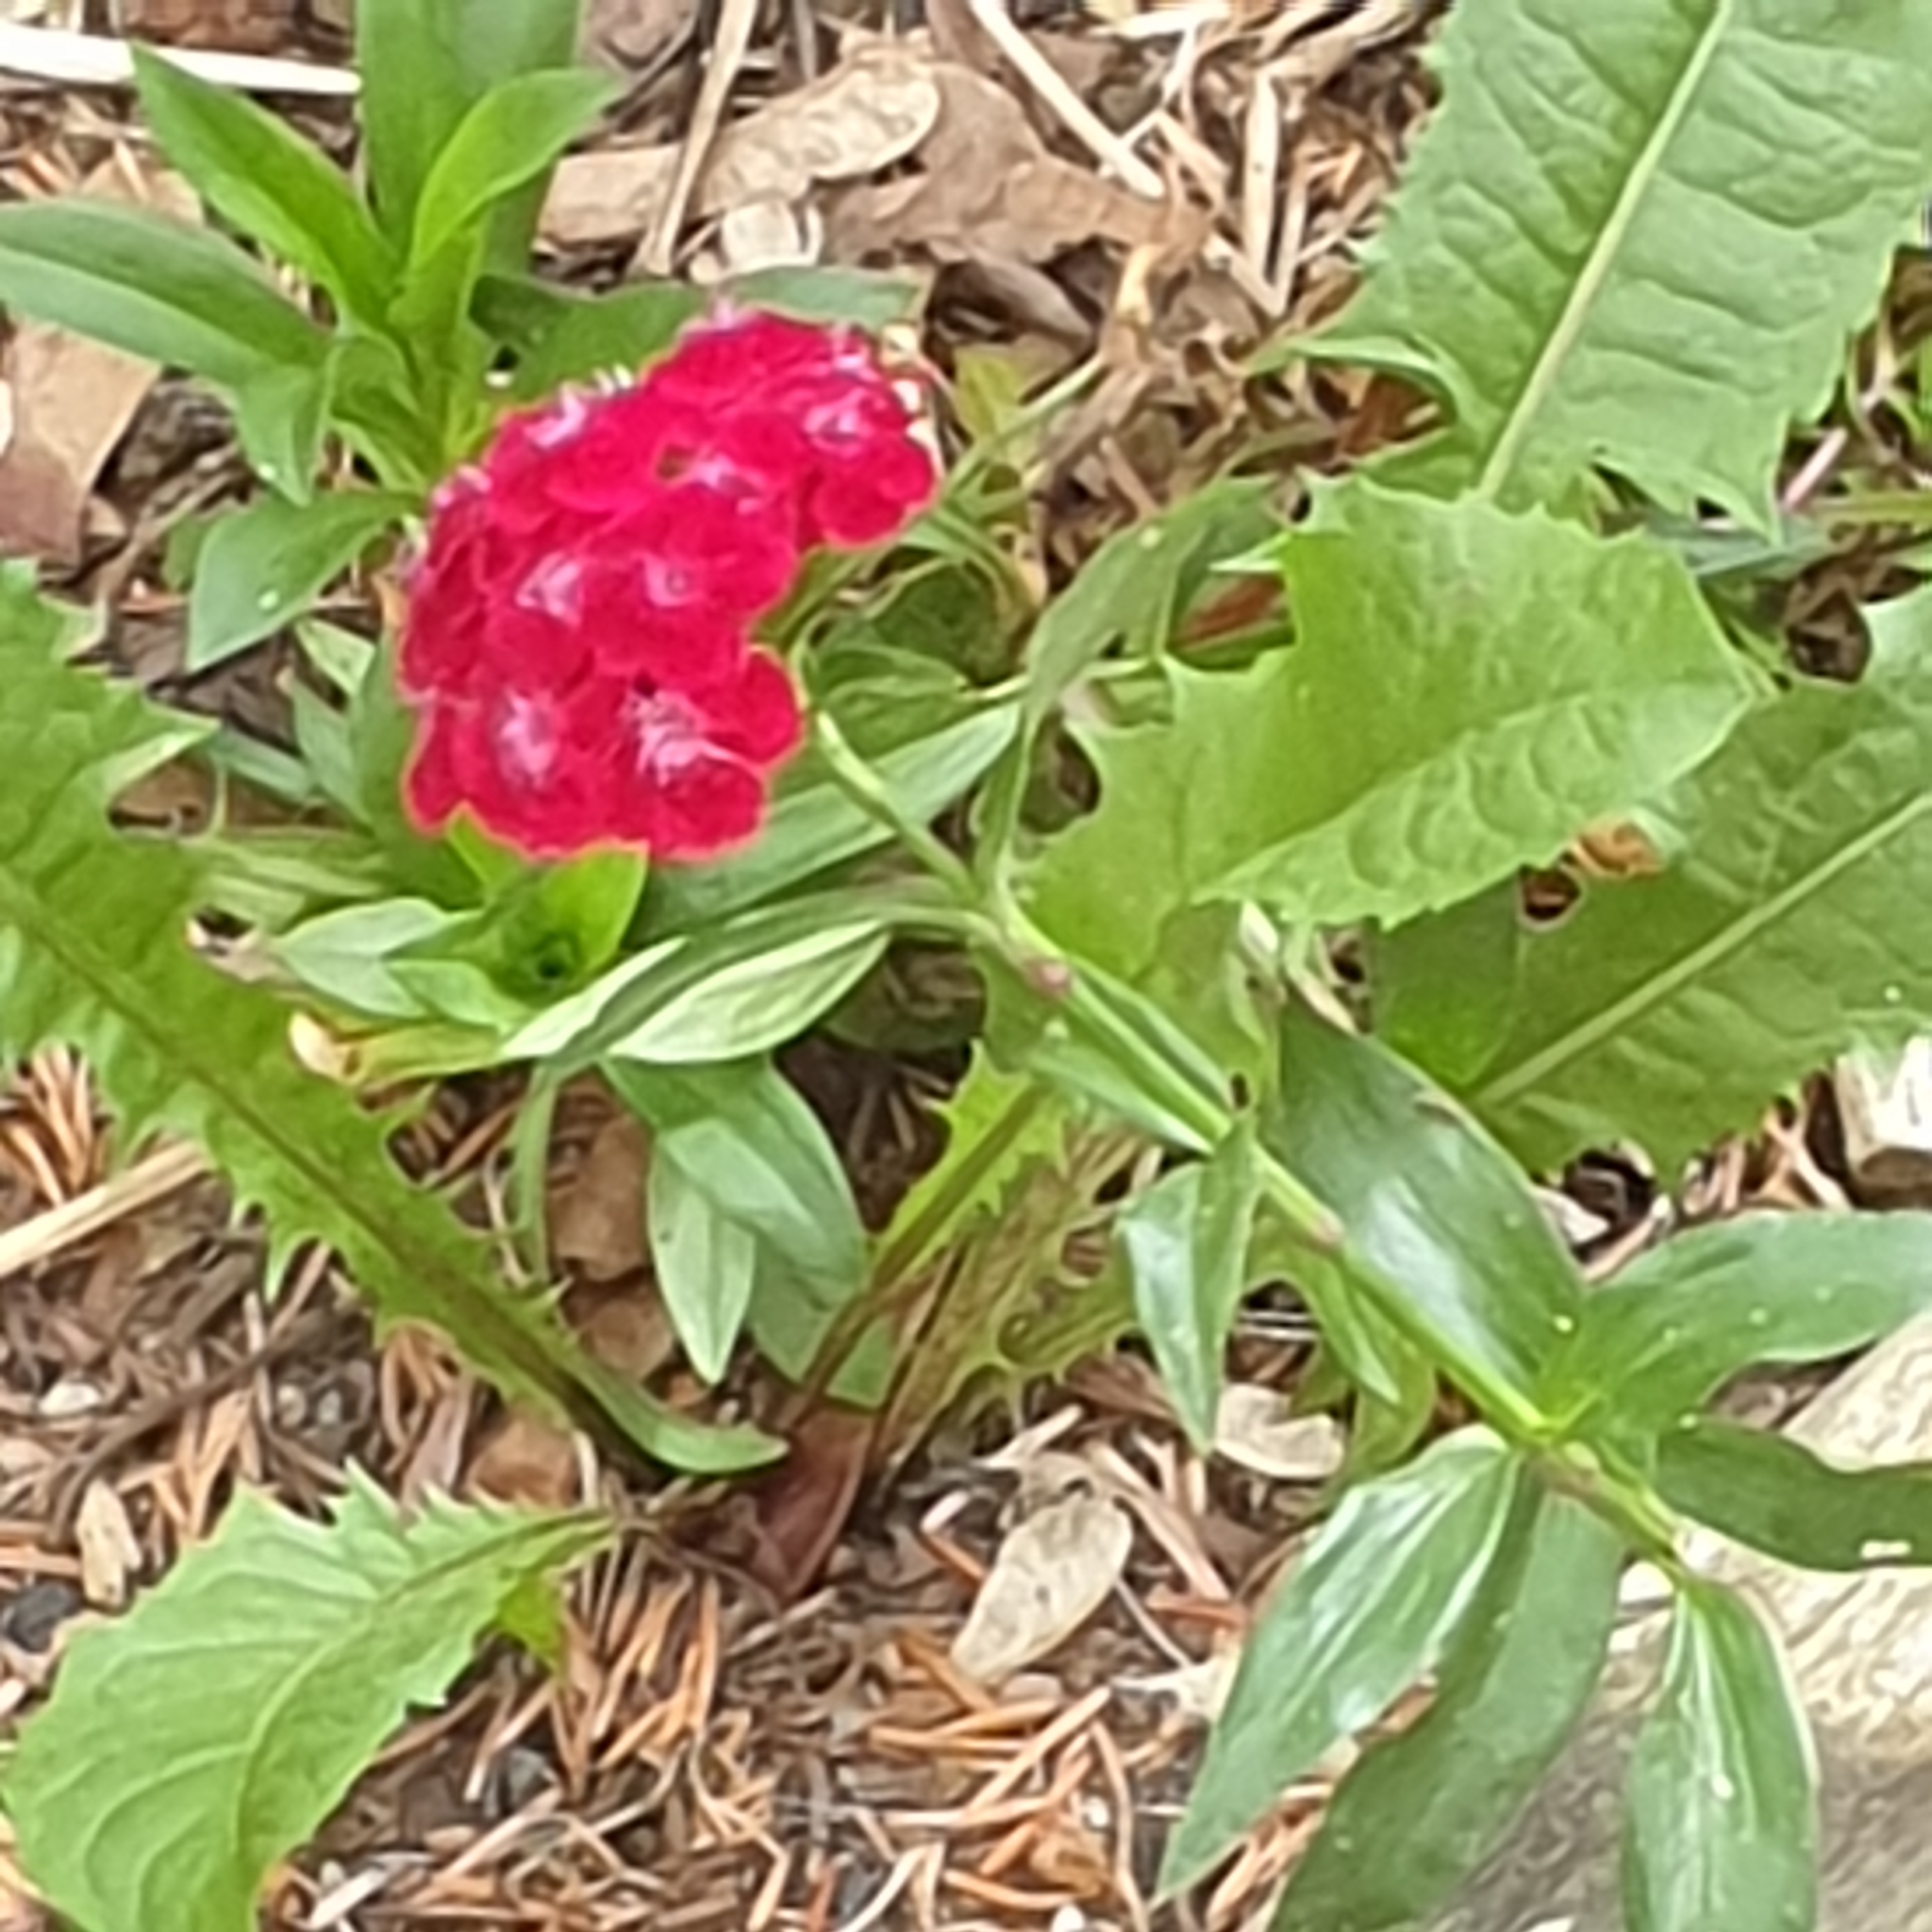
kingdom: Plantae
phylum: Tracheophyta
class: Magnoliopsida
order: Caryophyllales
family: Caryophyllaceae
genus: Dianthus
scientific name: Dianthus barbatus
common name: Sweet-william
